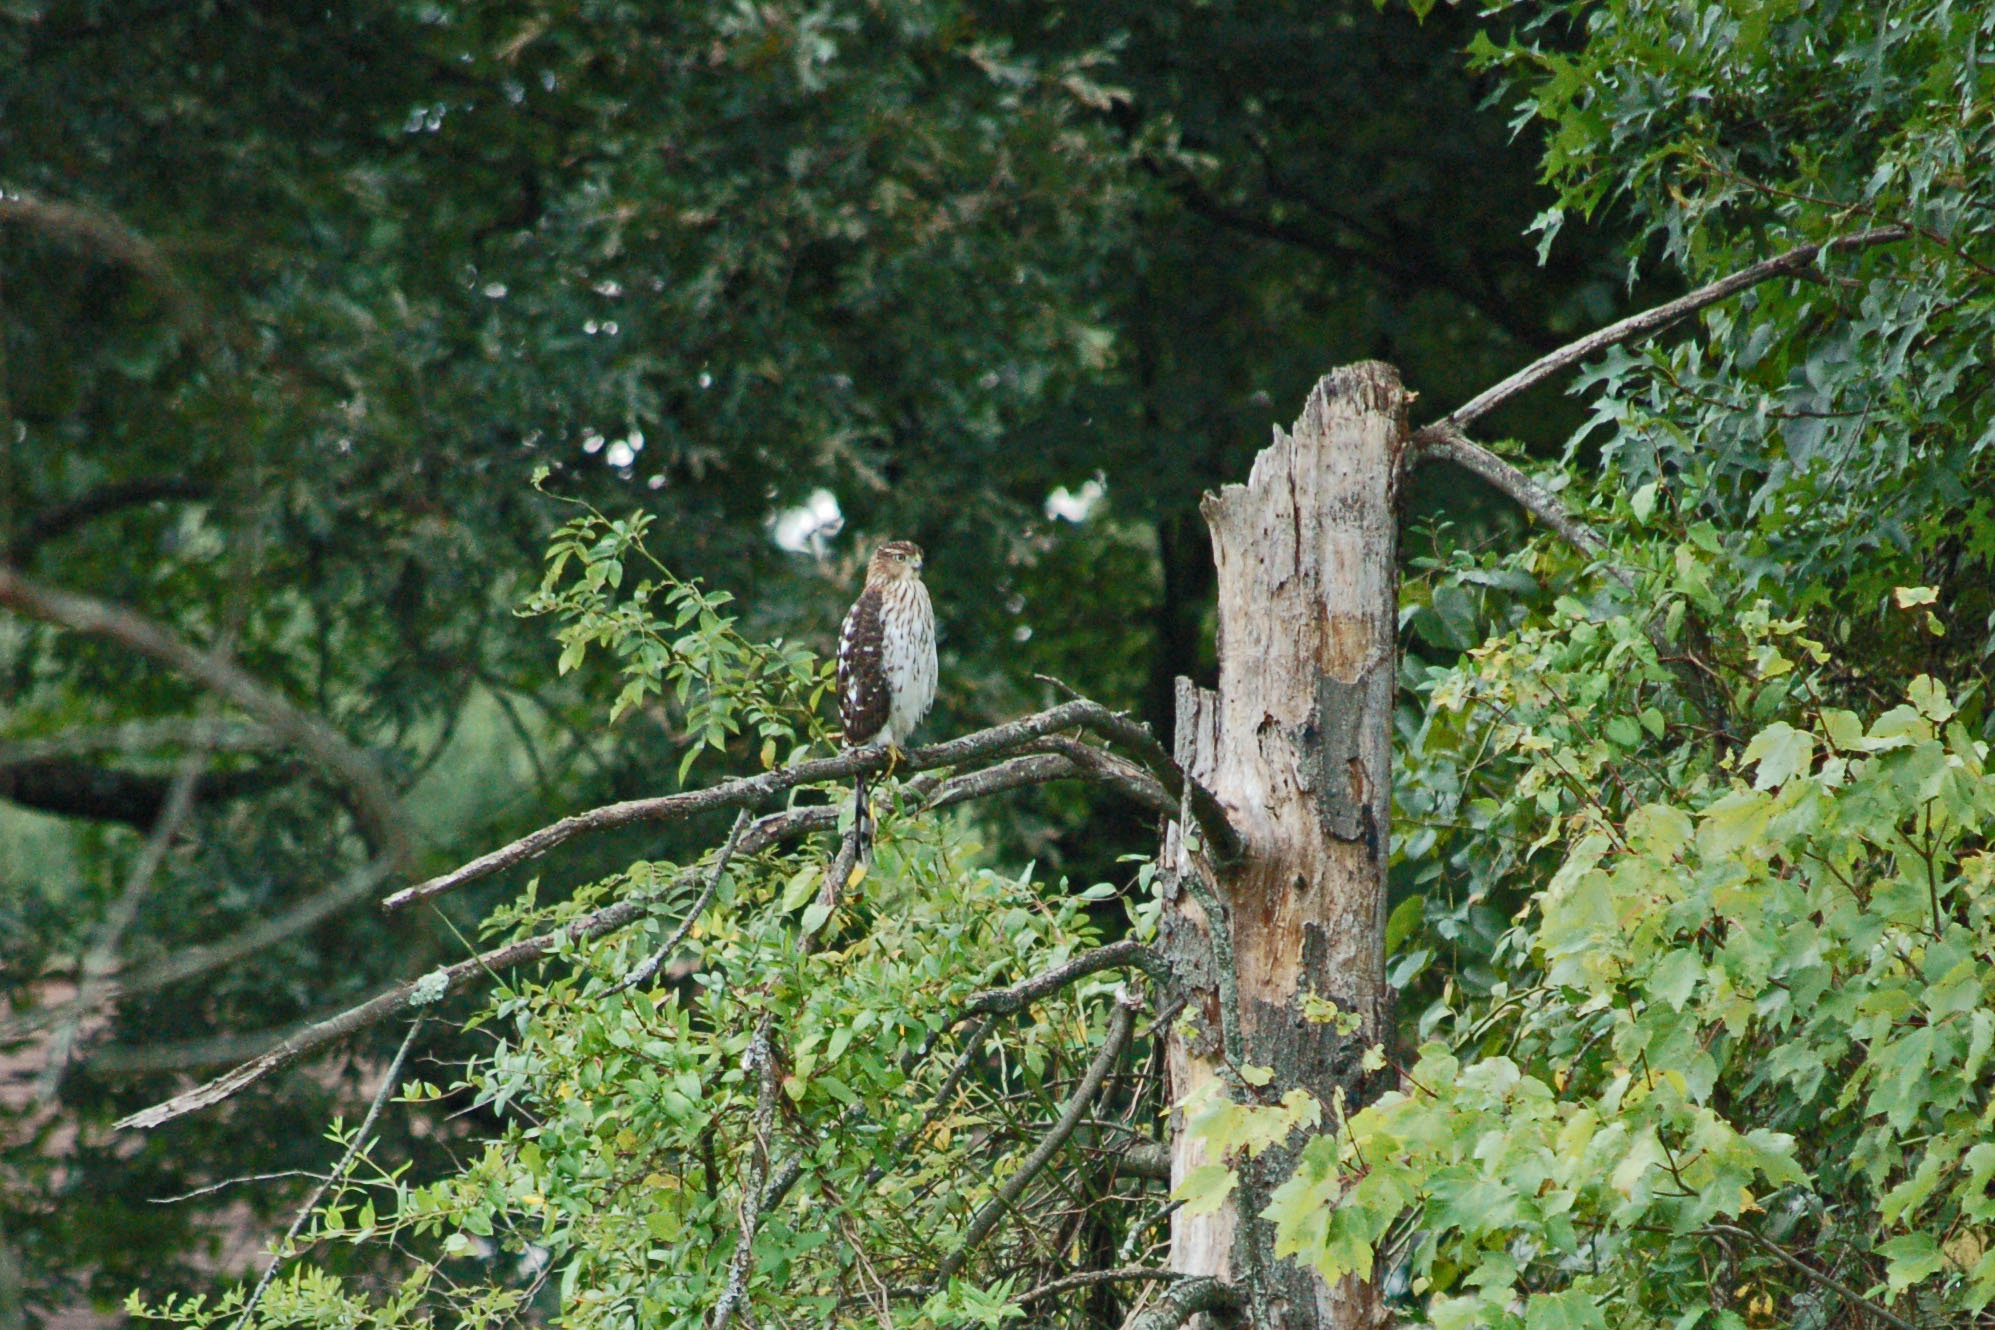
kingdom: Animalia
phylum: Chordata
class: Aves
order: Accipitriformes
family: Accipitridae
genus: Accipiter
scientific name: Accipiter cooperii
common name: Cooper's hawk
